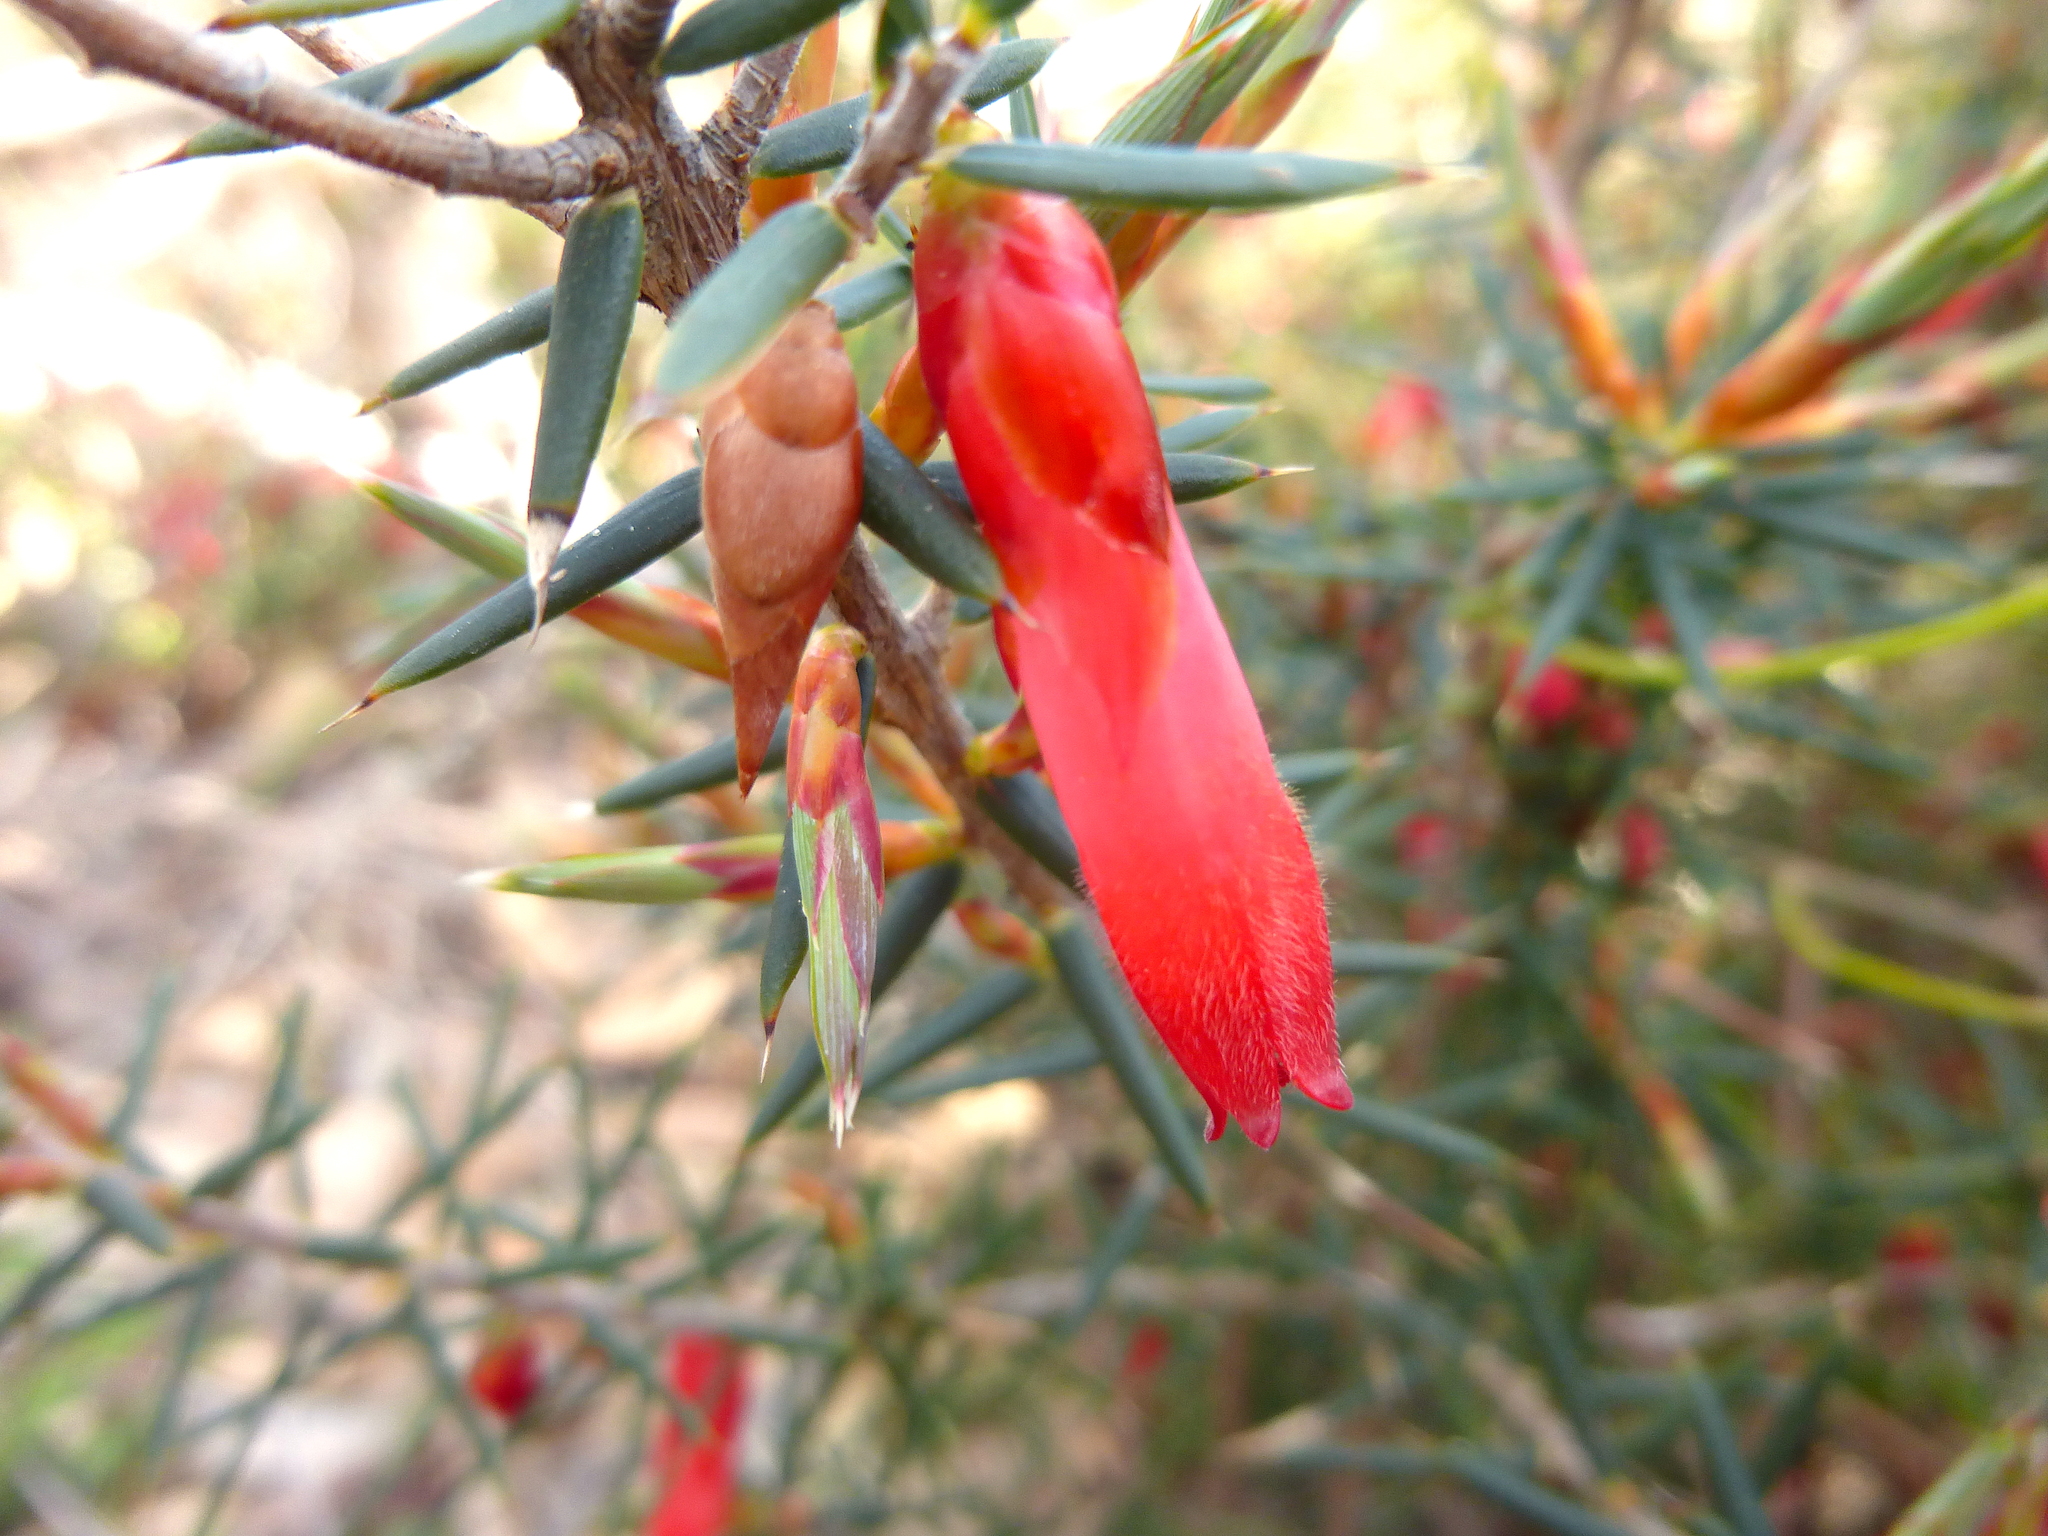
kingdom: Plantae
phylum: Tracheophyta
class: Magnoliopsida
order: Ericales
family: Ericaceae
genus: Stenanthera
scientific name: Stenanthera conostephioides
